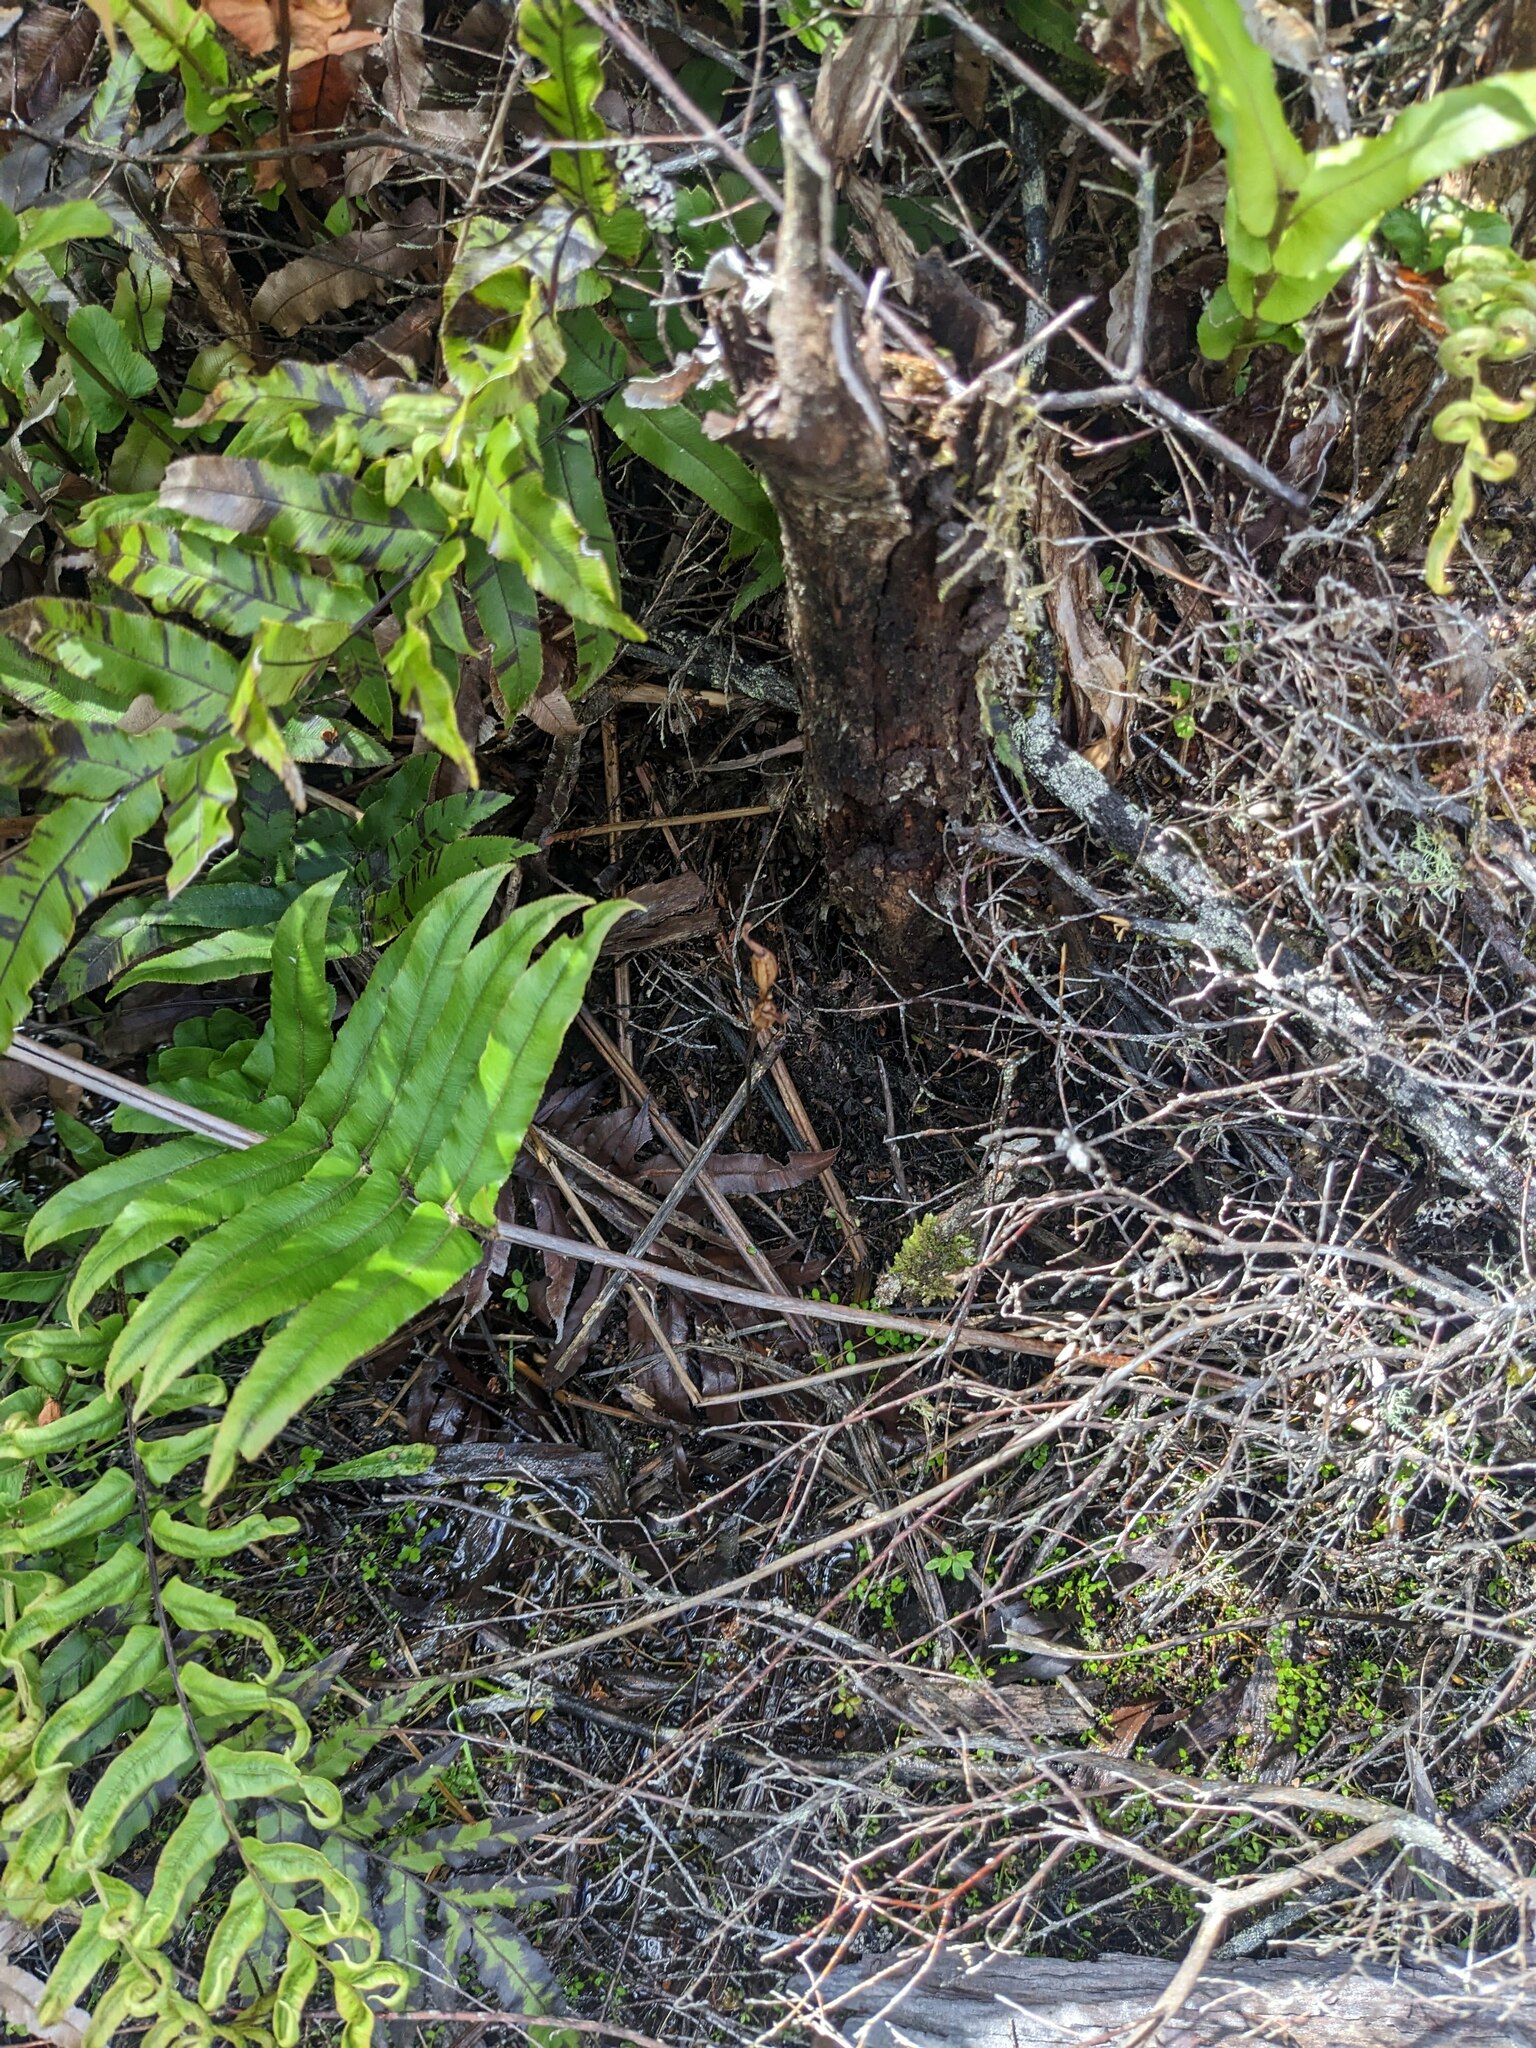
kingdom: Plantae
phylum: Tracheophyta
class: Liliopsida
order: Asparagales
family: Orchidaceae
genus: Gastrodia
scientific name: Gastrodia minor
